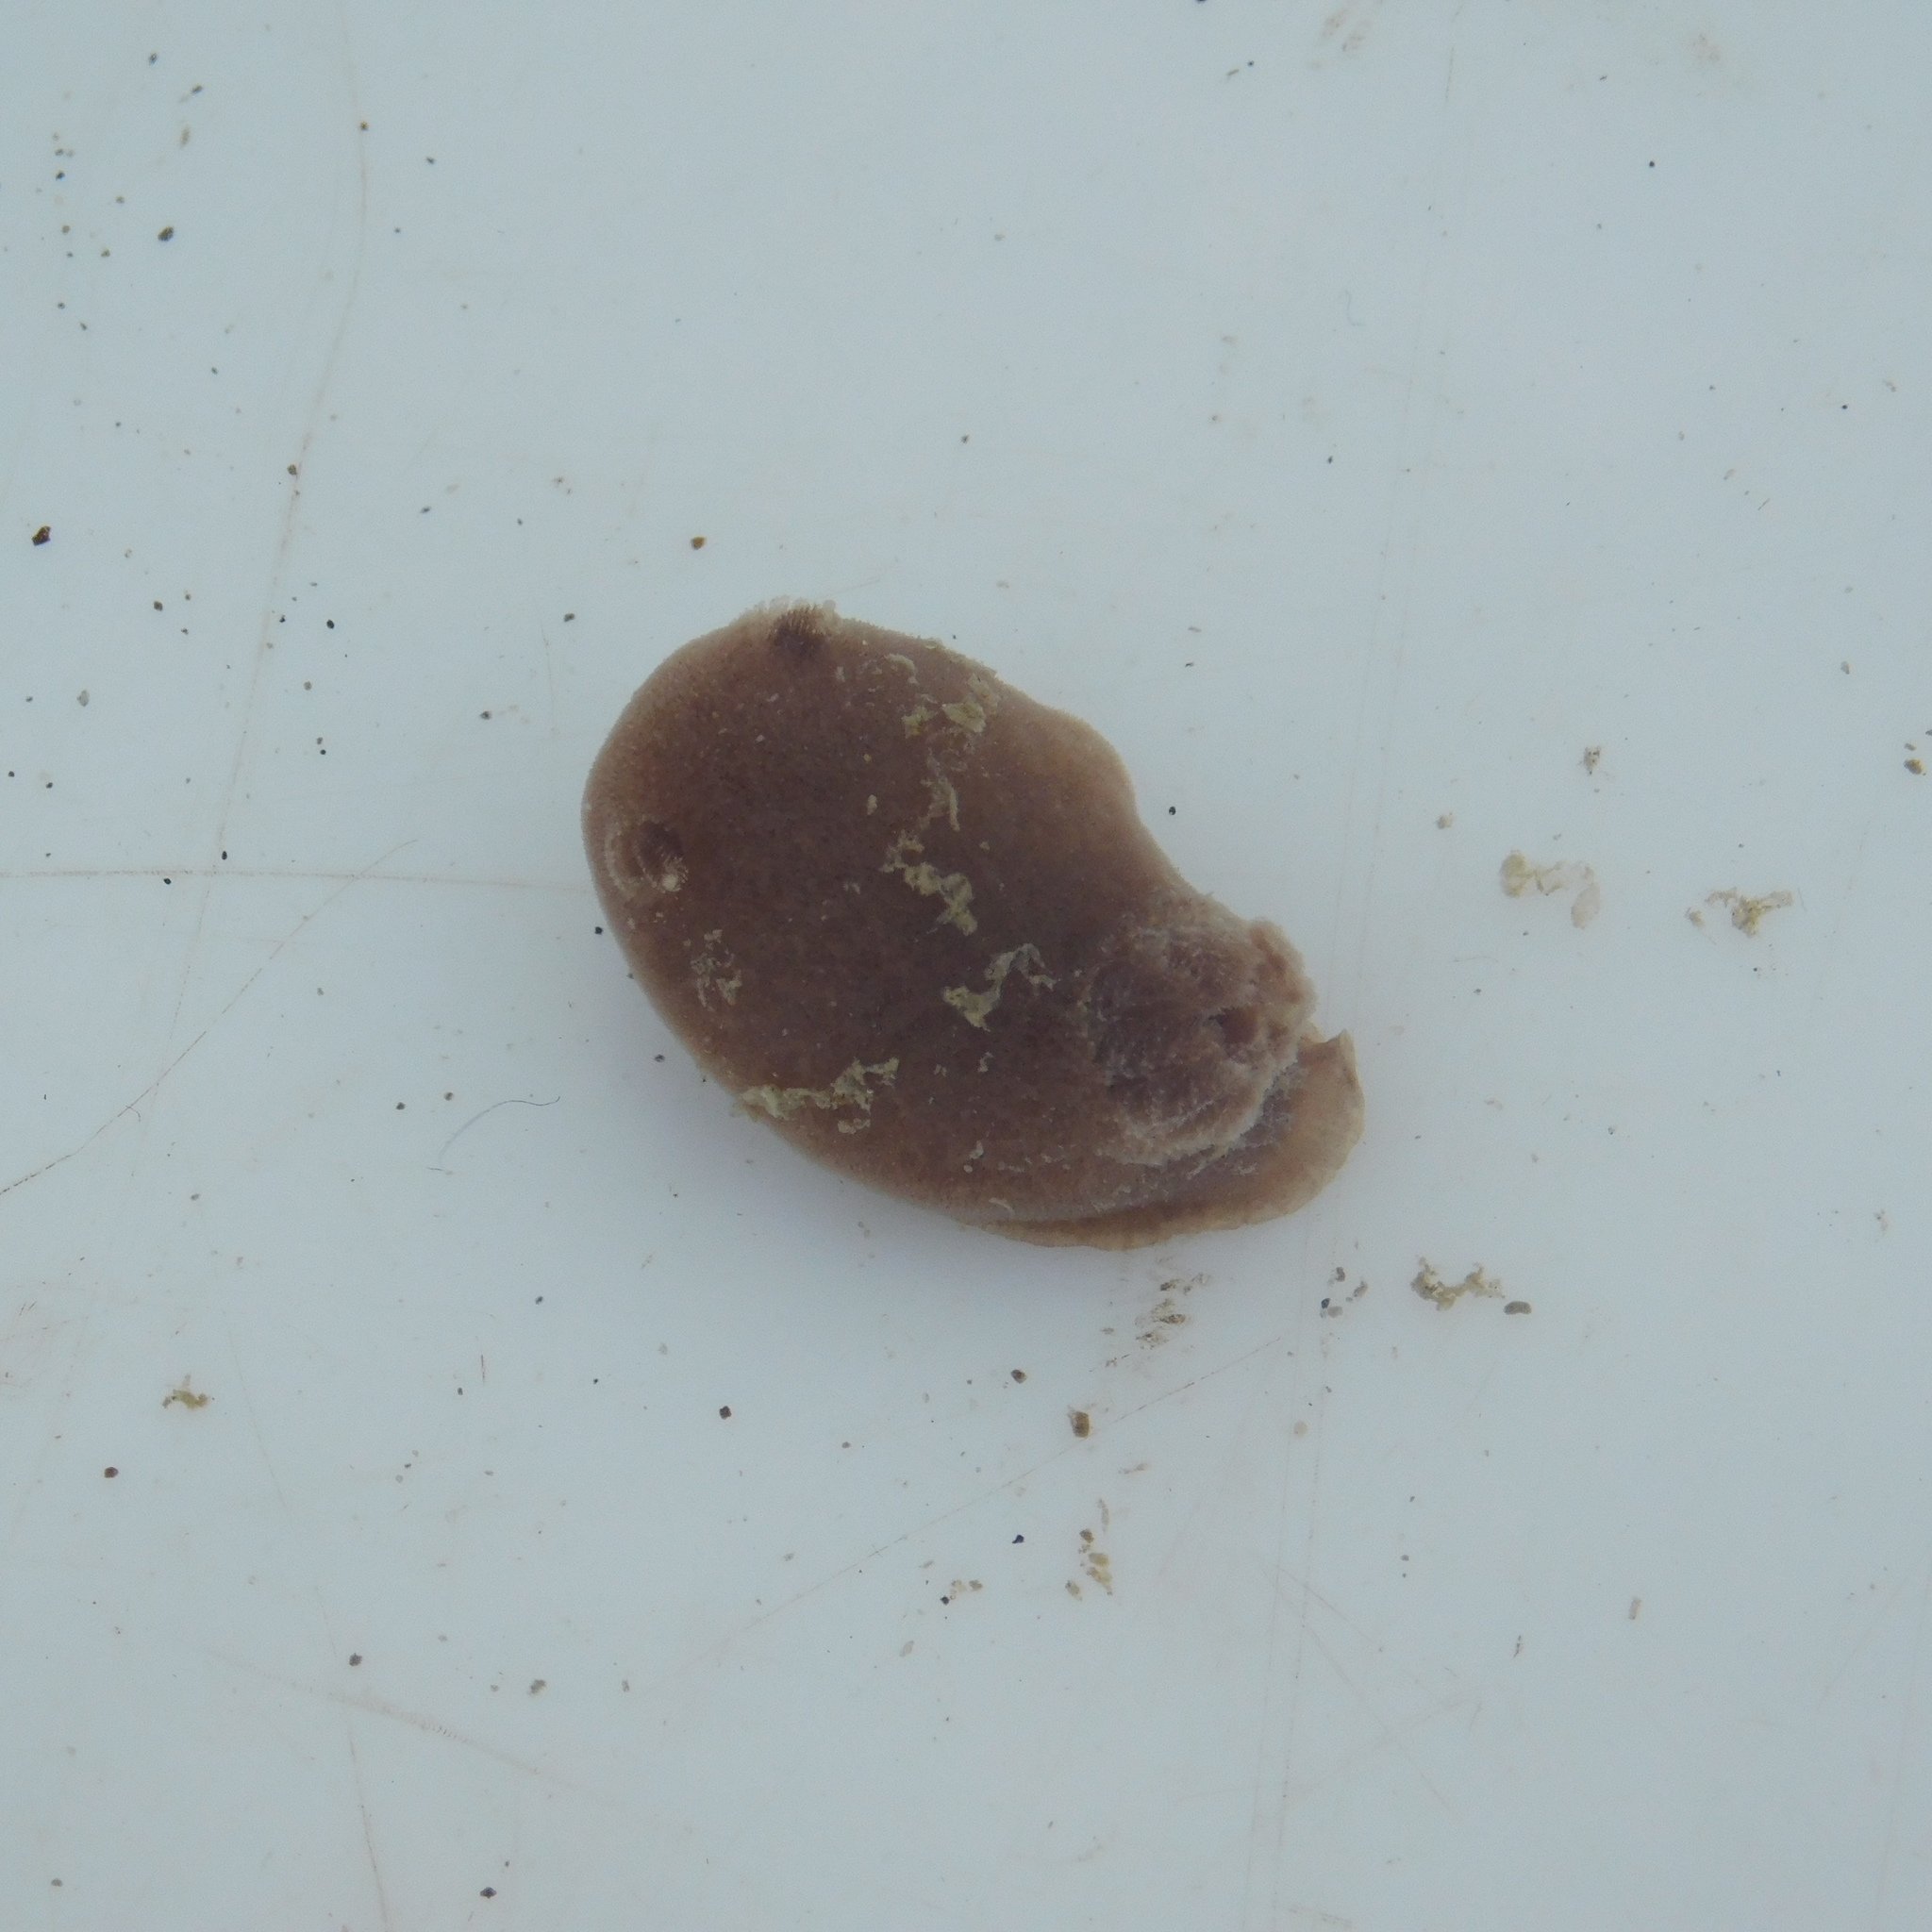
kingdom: Animalia
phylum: Mollusca
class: Gastropoda
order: Nudibranchia
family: Discodorididae
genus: Jorunna
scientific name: Jorunna pantherina
